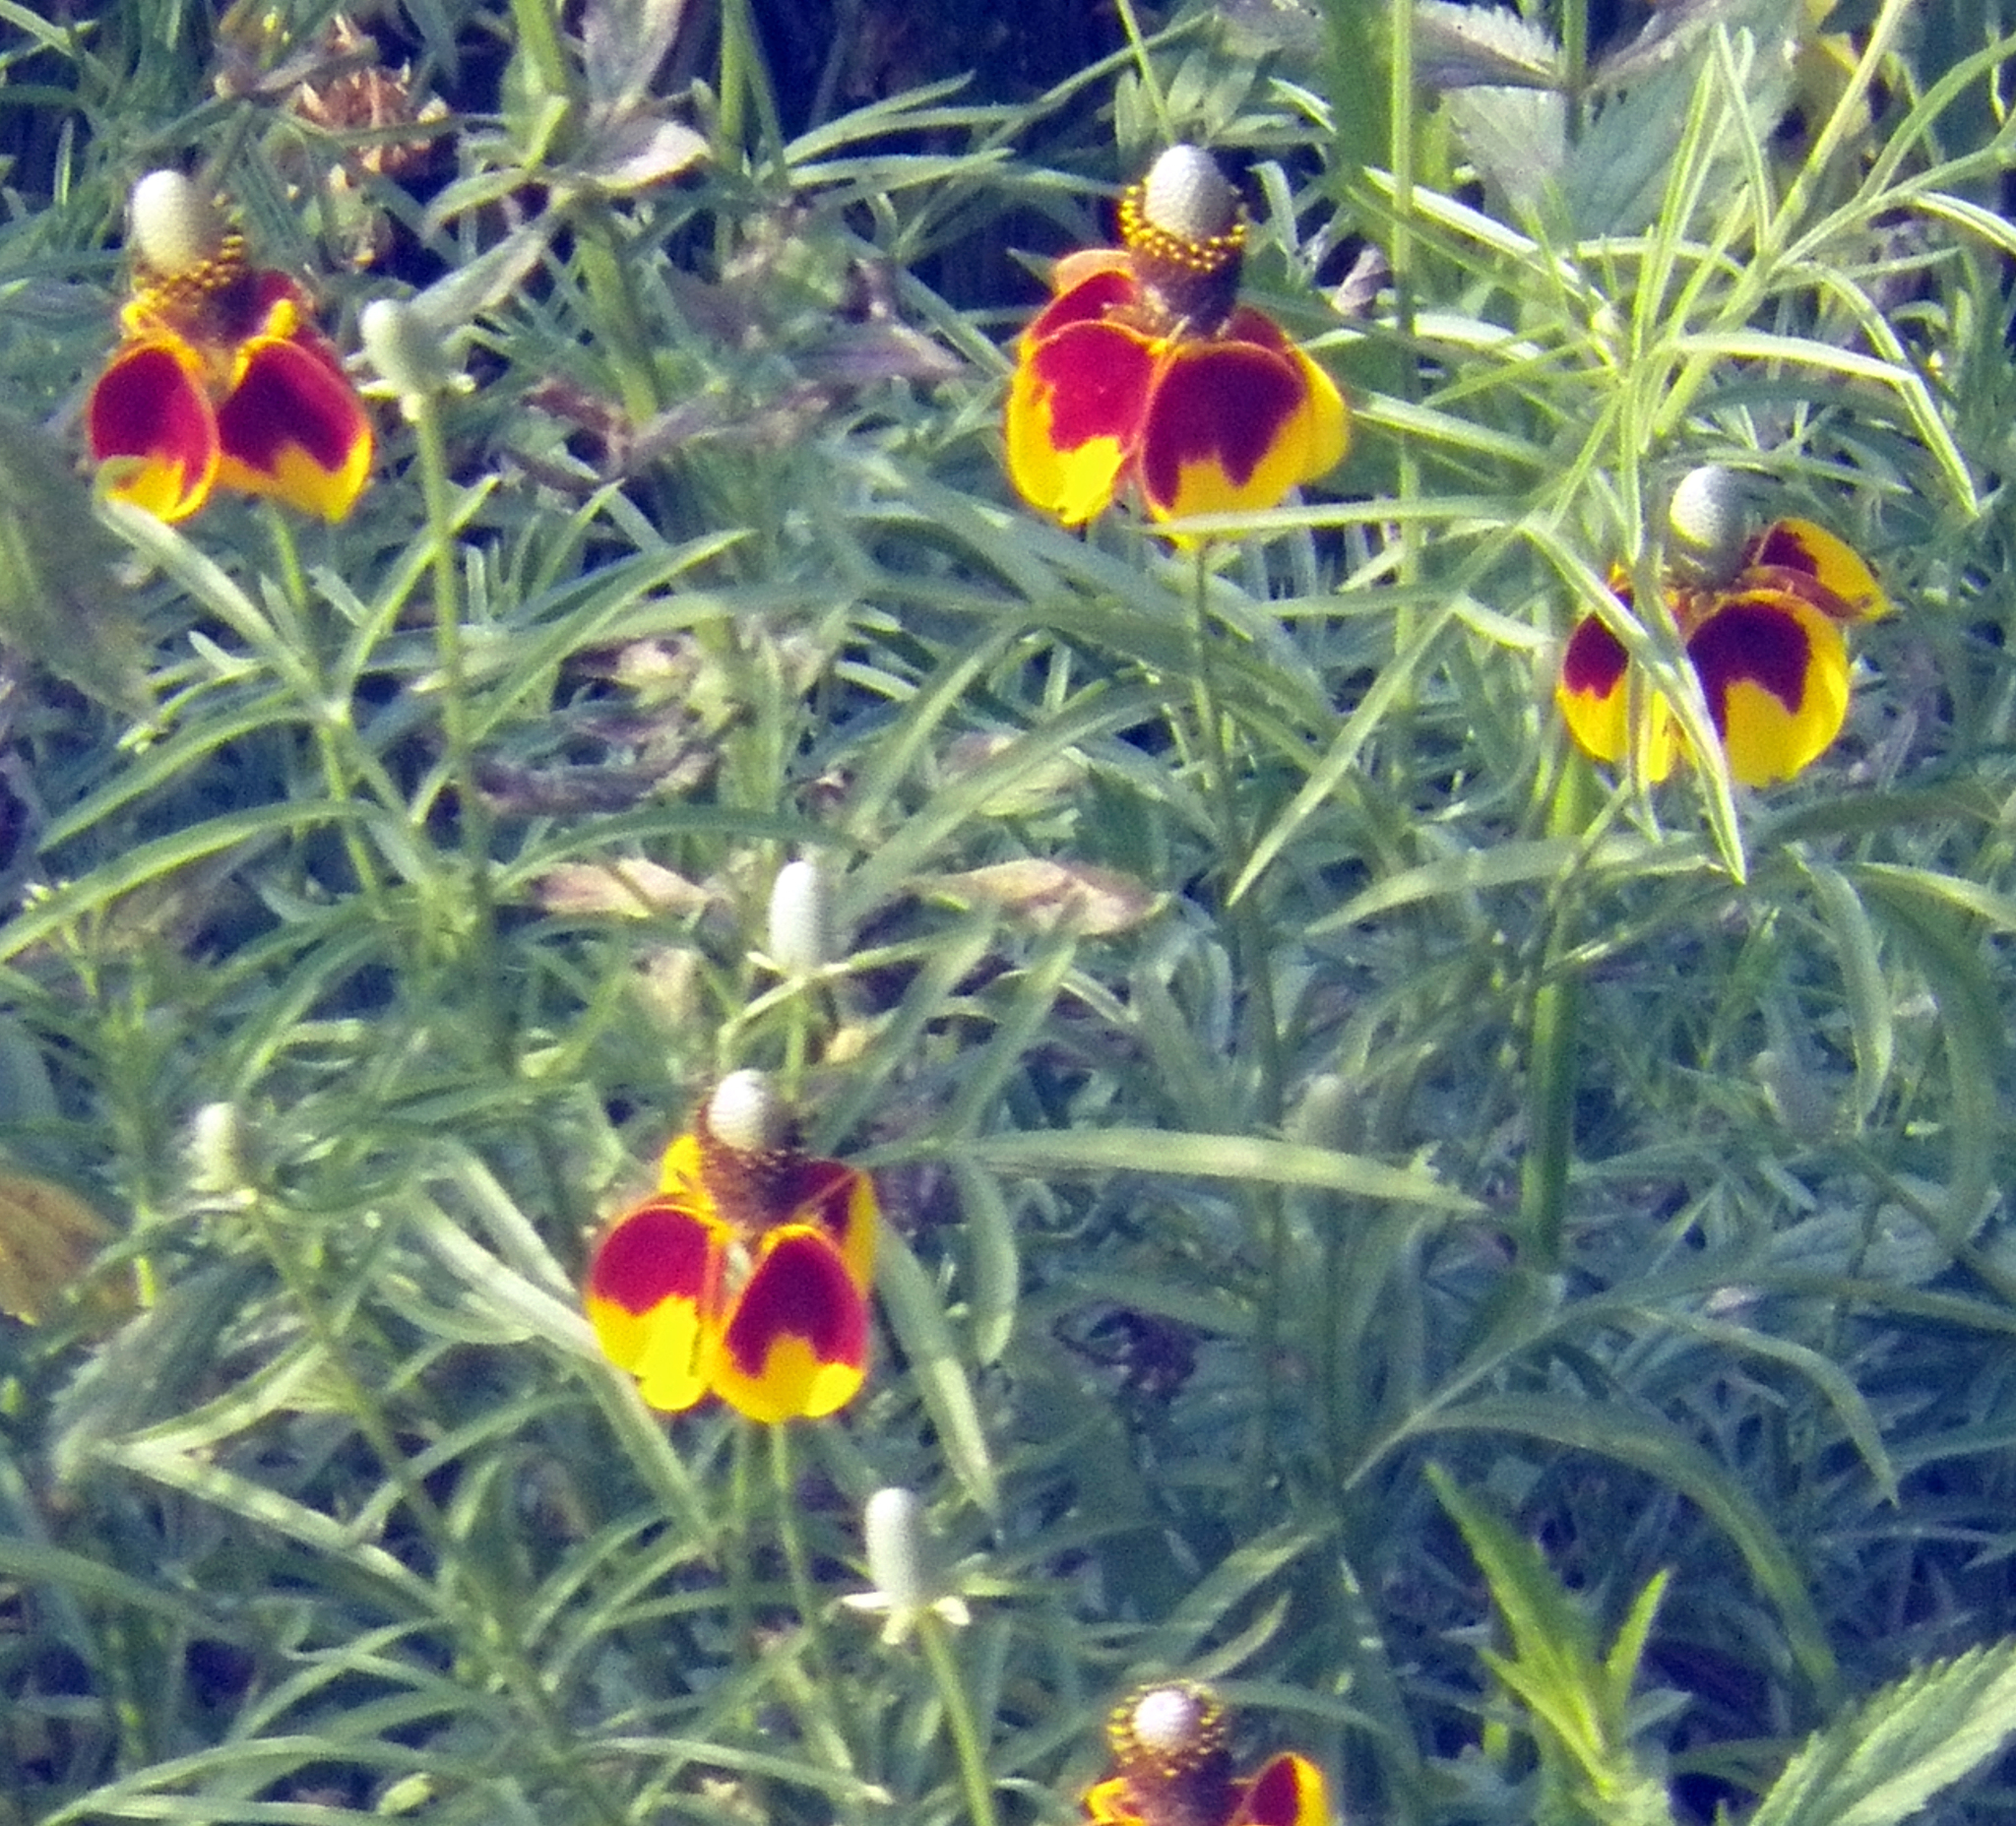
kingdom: Plantae
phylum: Tracheophyta
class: Magnoliopsida
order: Asterales
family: Asteraceae
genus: Ratibida
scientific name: Ratibida columnifera
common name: Prairie coneflower
